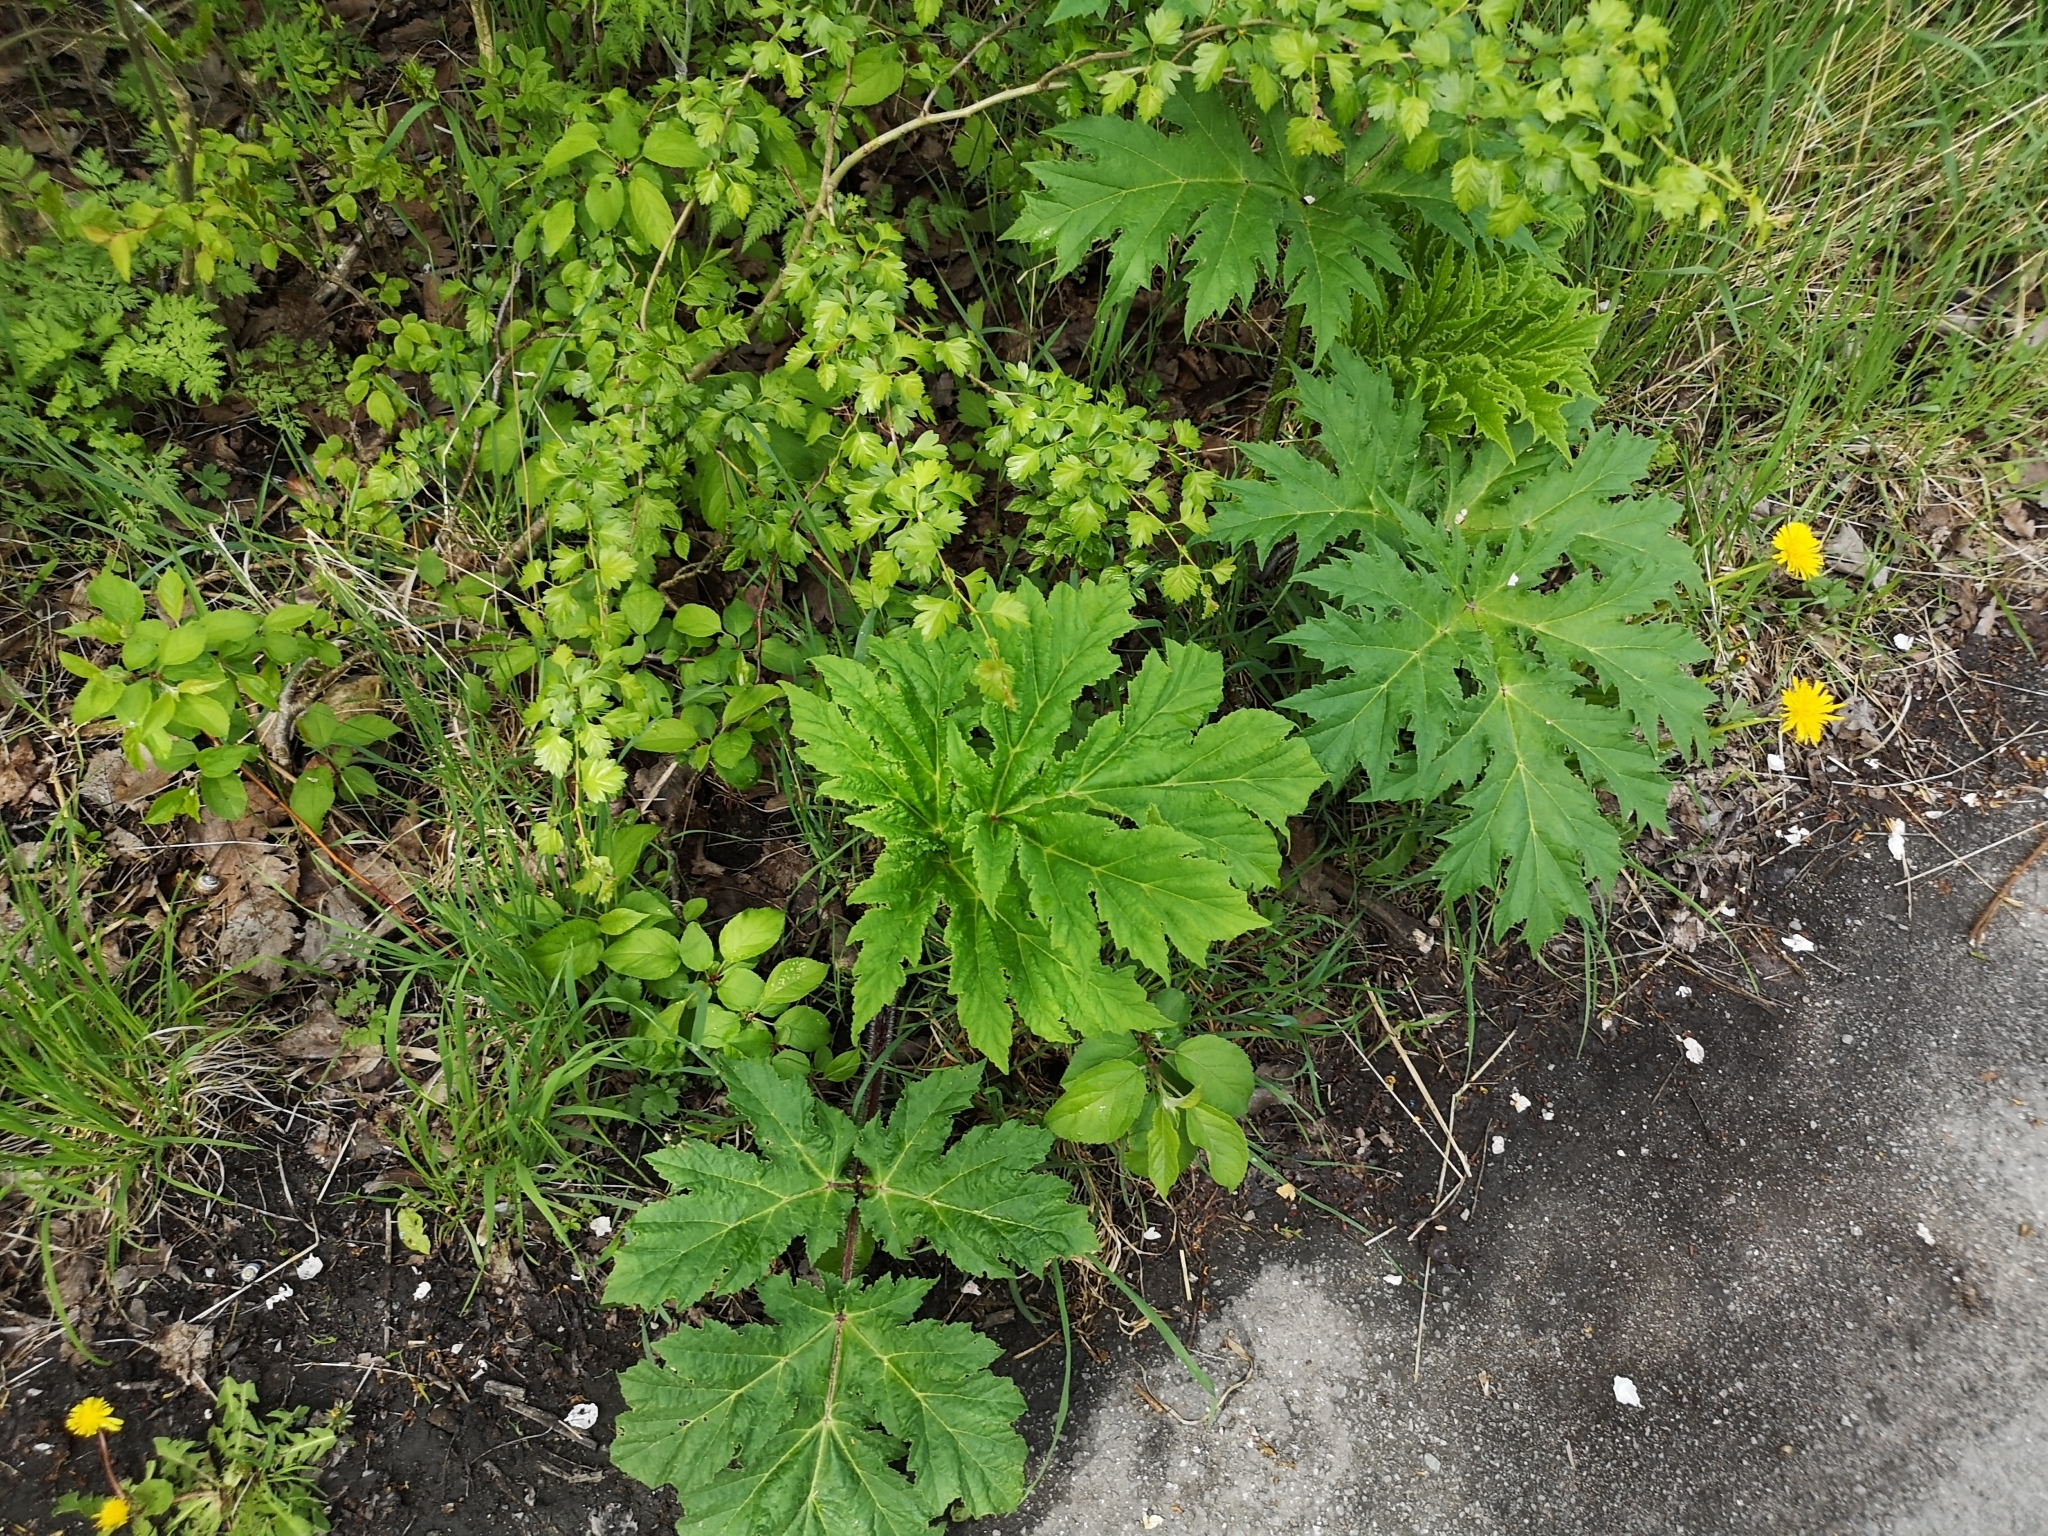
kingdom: Plantae
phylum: Tracheophyta
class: Magnoliopsida
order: Apiales
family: Apiaceae
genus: Heracleum
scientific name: Heracleum mantegazzianum
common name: Giant hogweed
